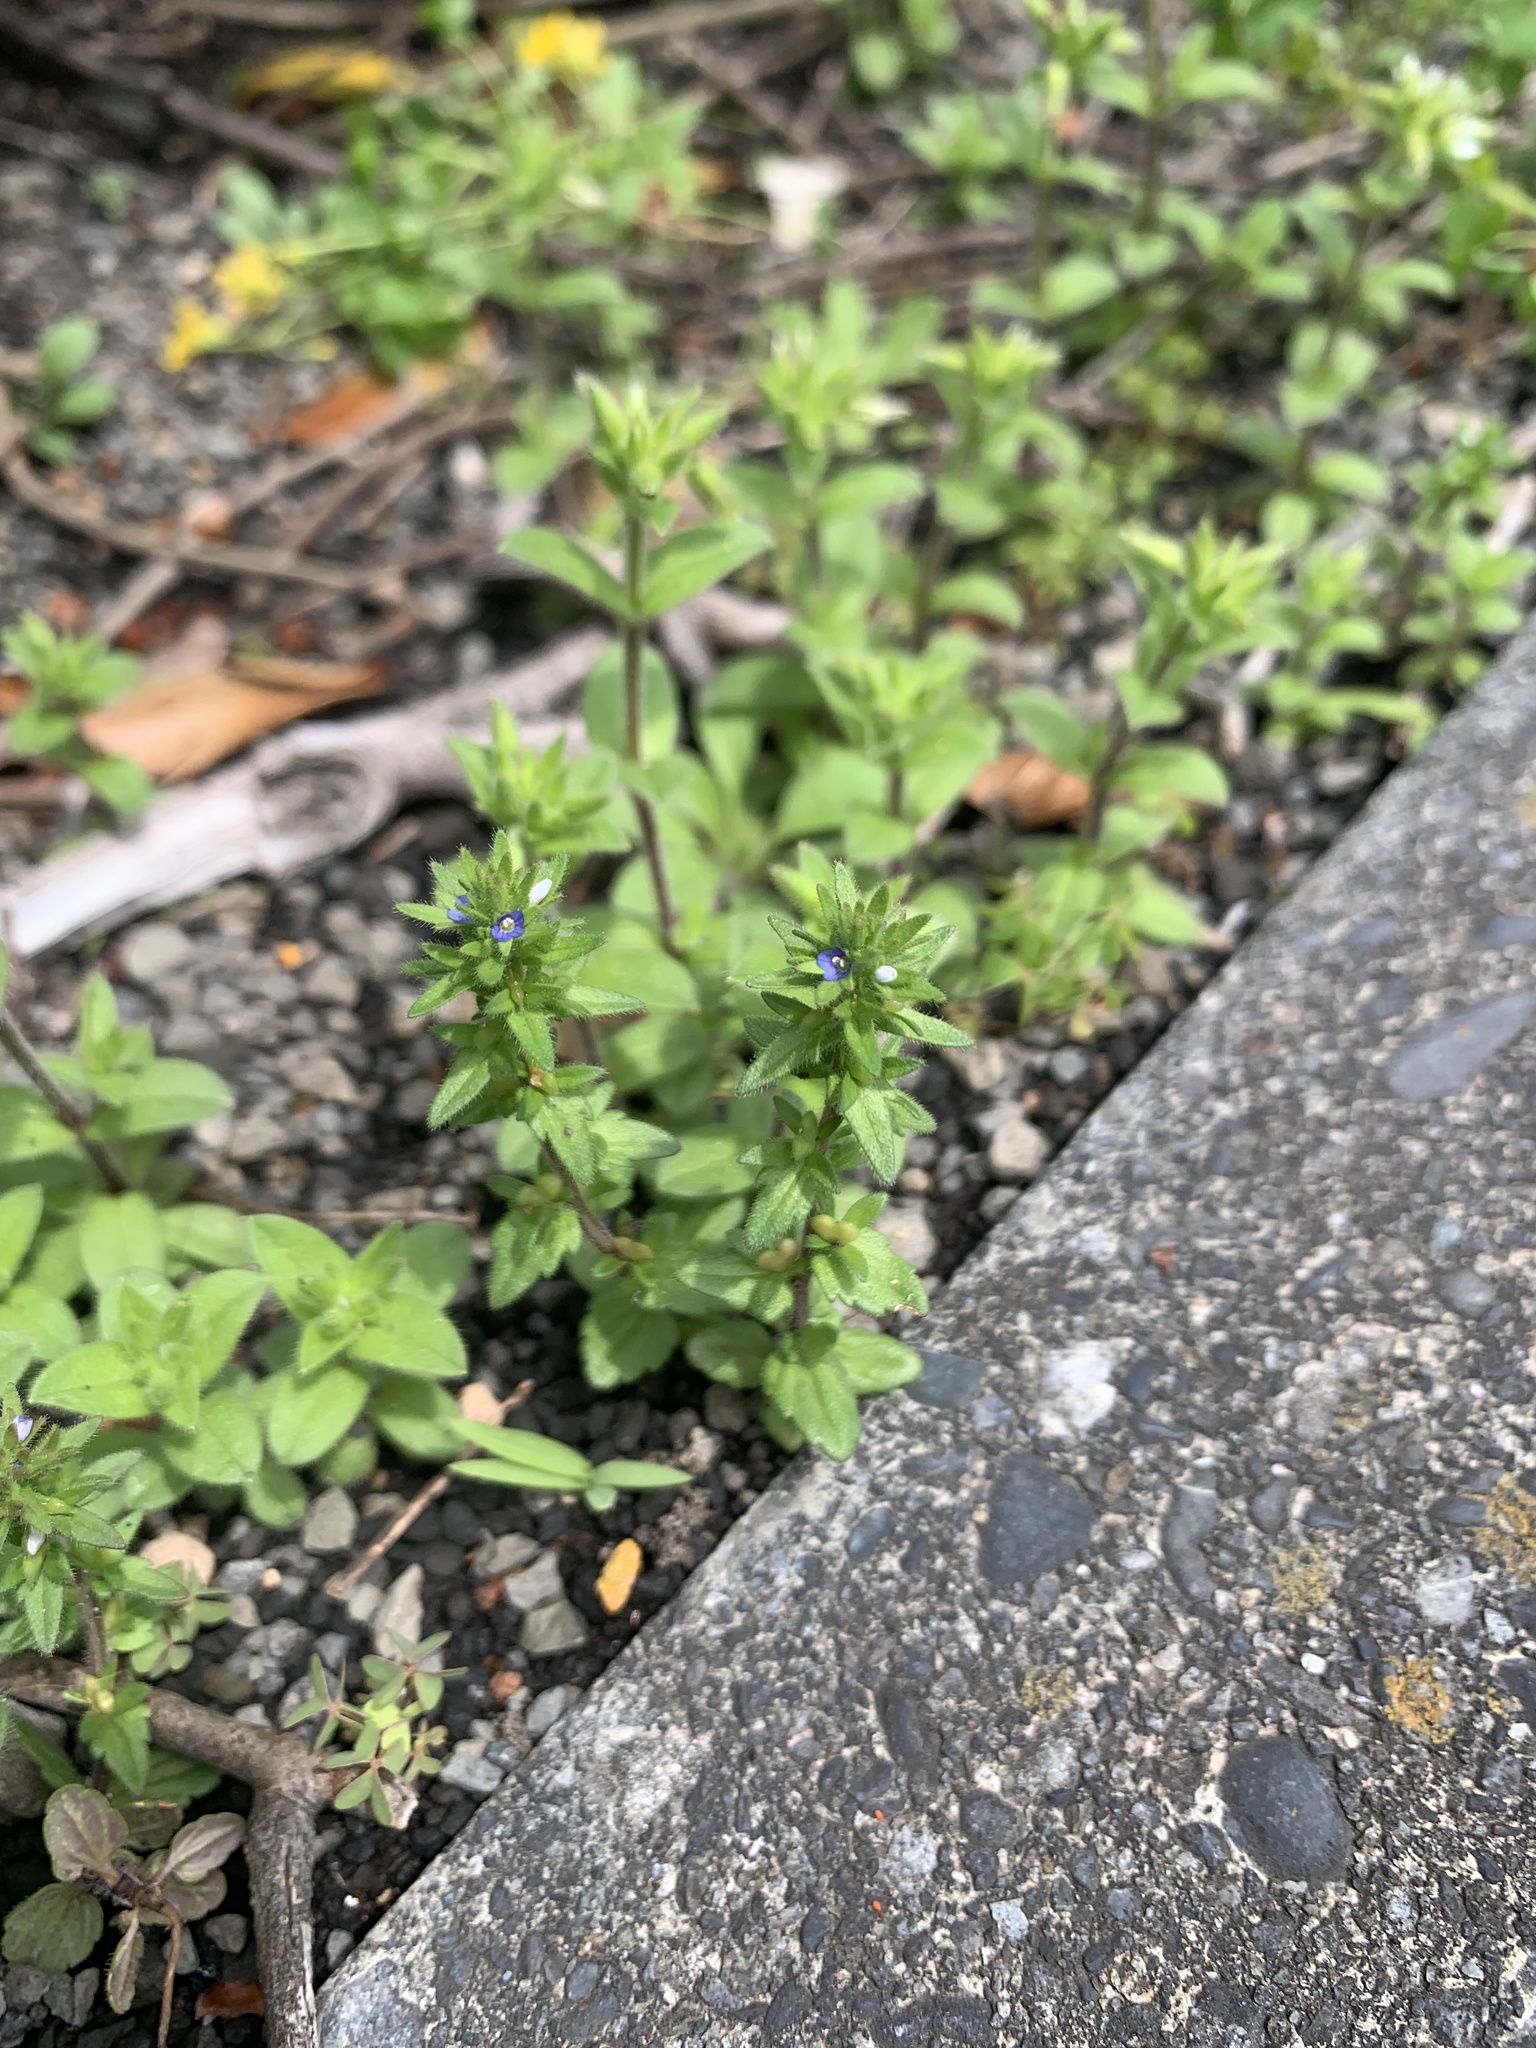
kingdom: Plantae
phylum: Tracheophyta
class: Magnoliopsida
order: Lamiales
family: Plantaginaceae
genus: Veronica
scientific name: Veronica arvensis
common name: Corn speedwell
